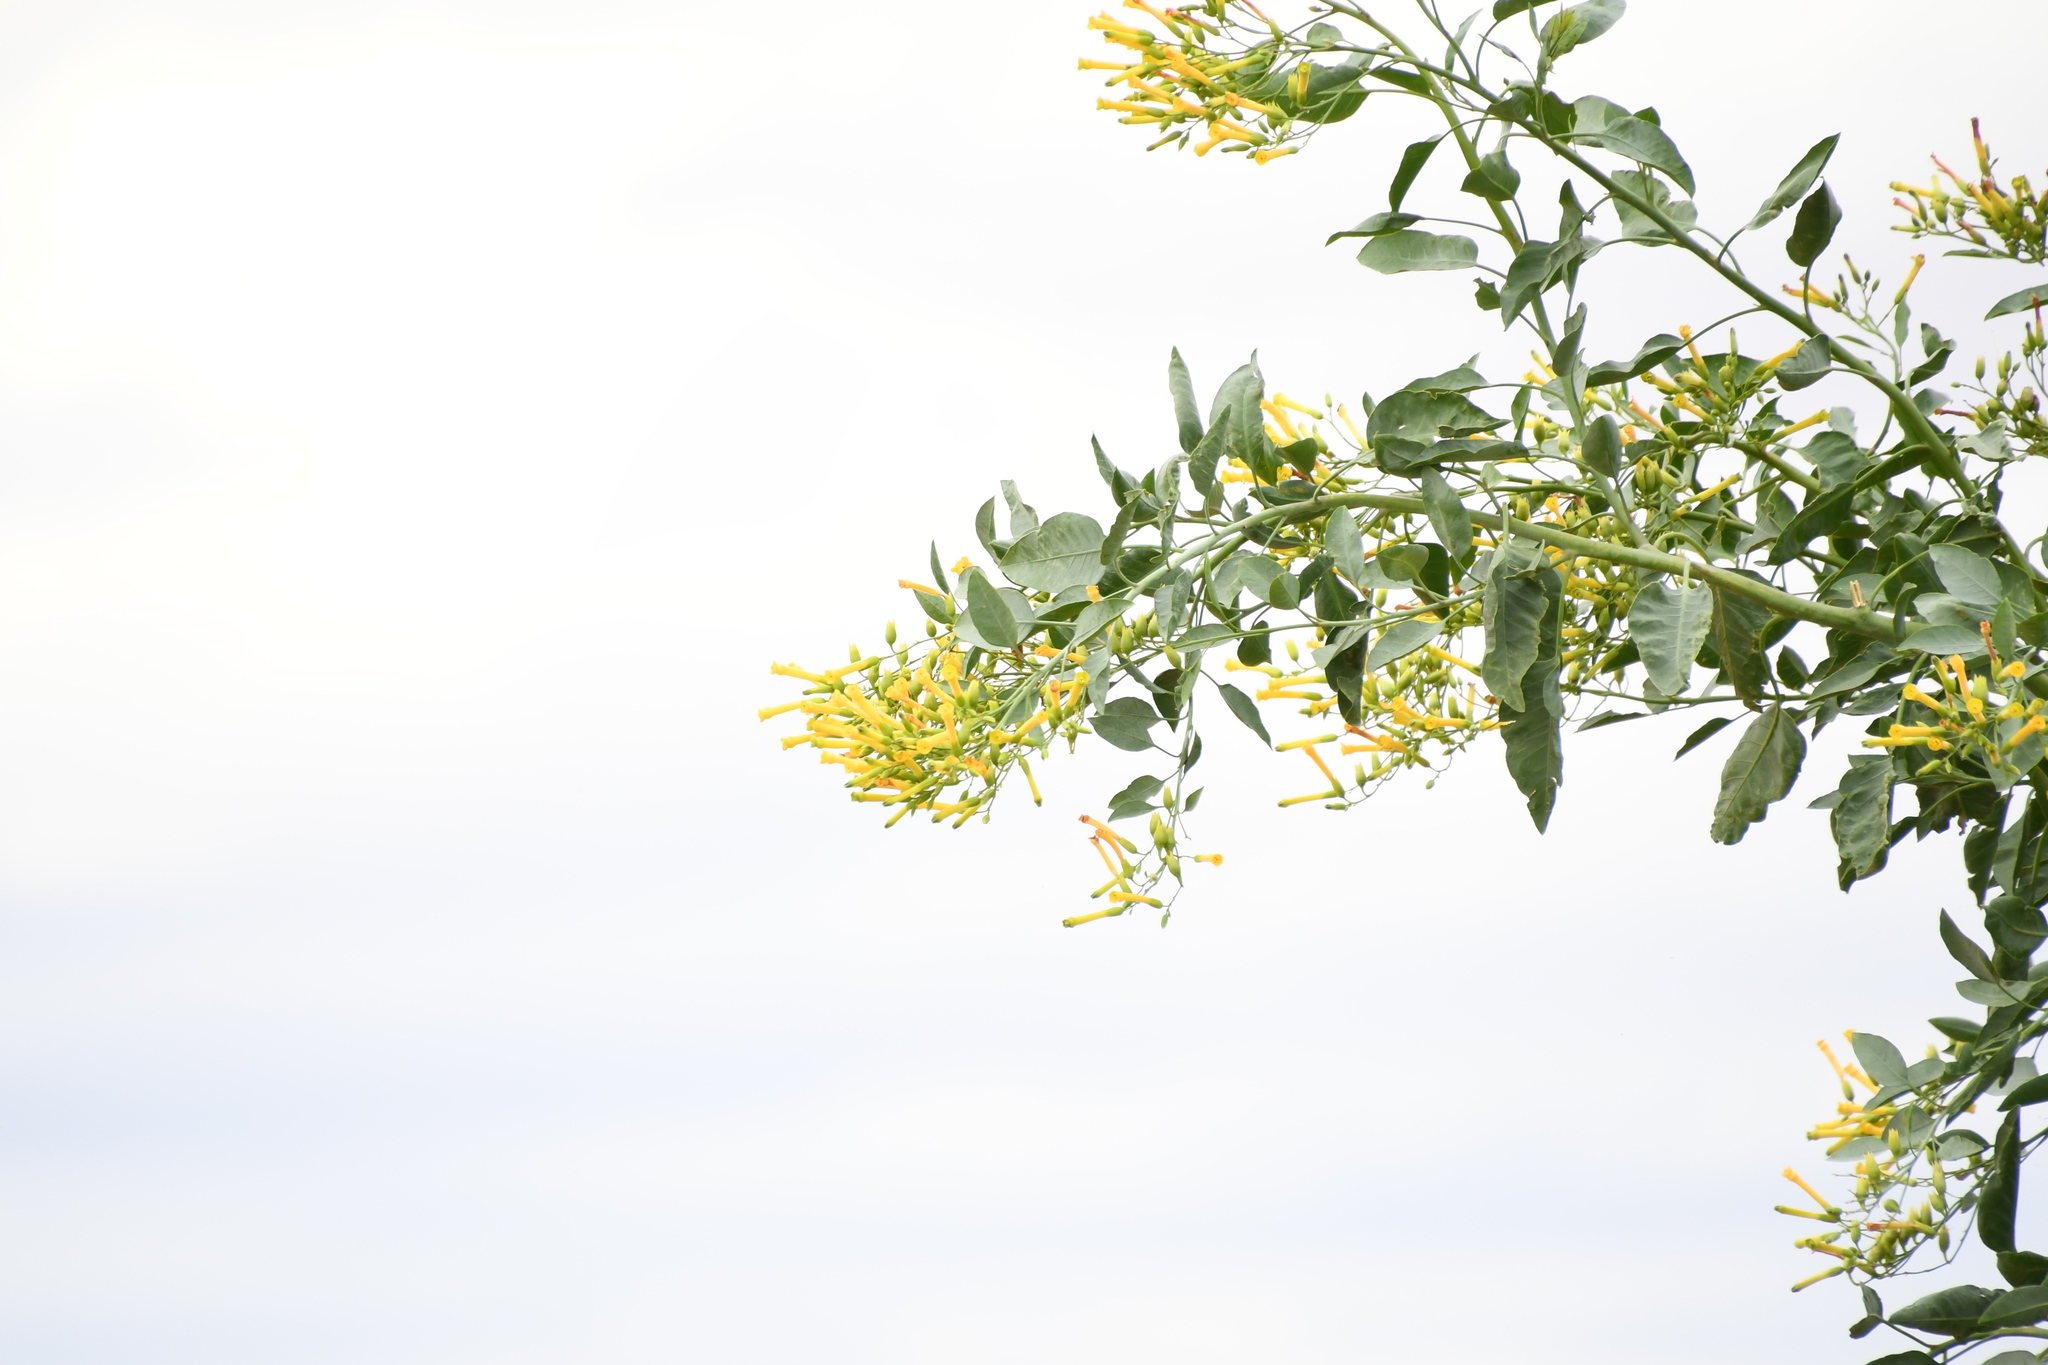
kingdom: Plantae
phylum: Tracheophyta
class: Magnoliopsida
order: Solanales
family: Solanaceae
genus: Nicotiana
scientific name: Nicotiana glauca
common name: Tree tobacco
